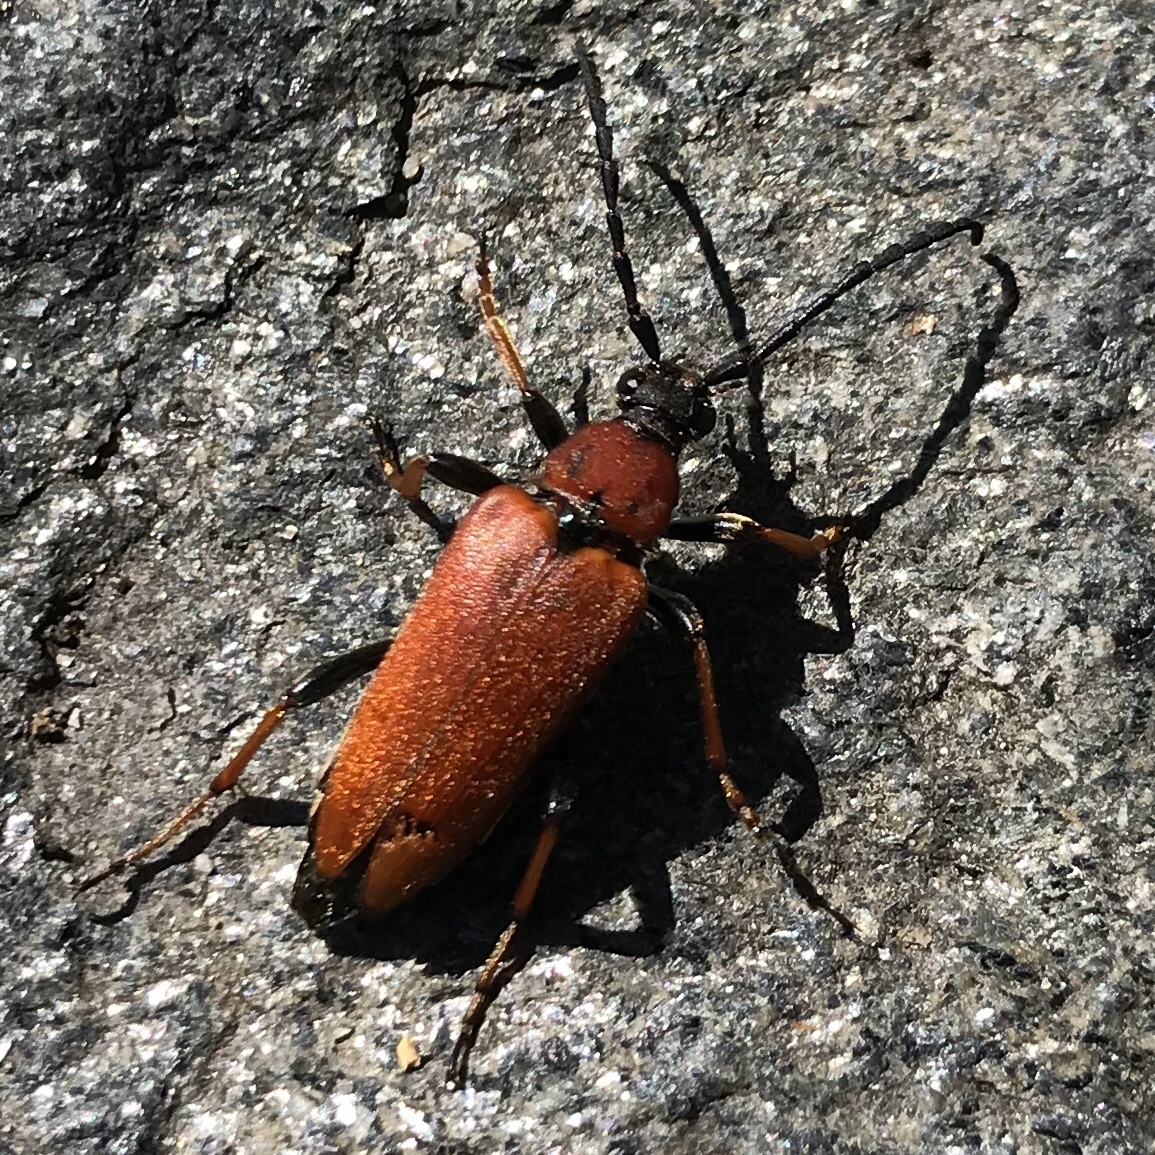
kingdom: Animalia
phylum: Arthropoda
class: Insecta
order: Coleoptera
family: Cerambycidae
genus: Stictoleptura
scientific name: Stictoleptura rubra
